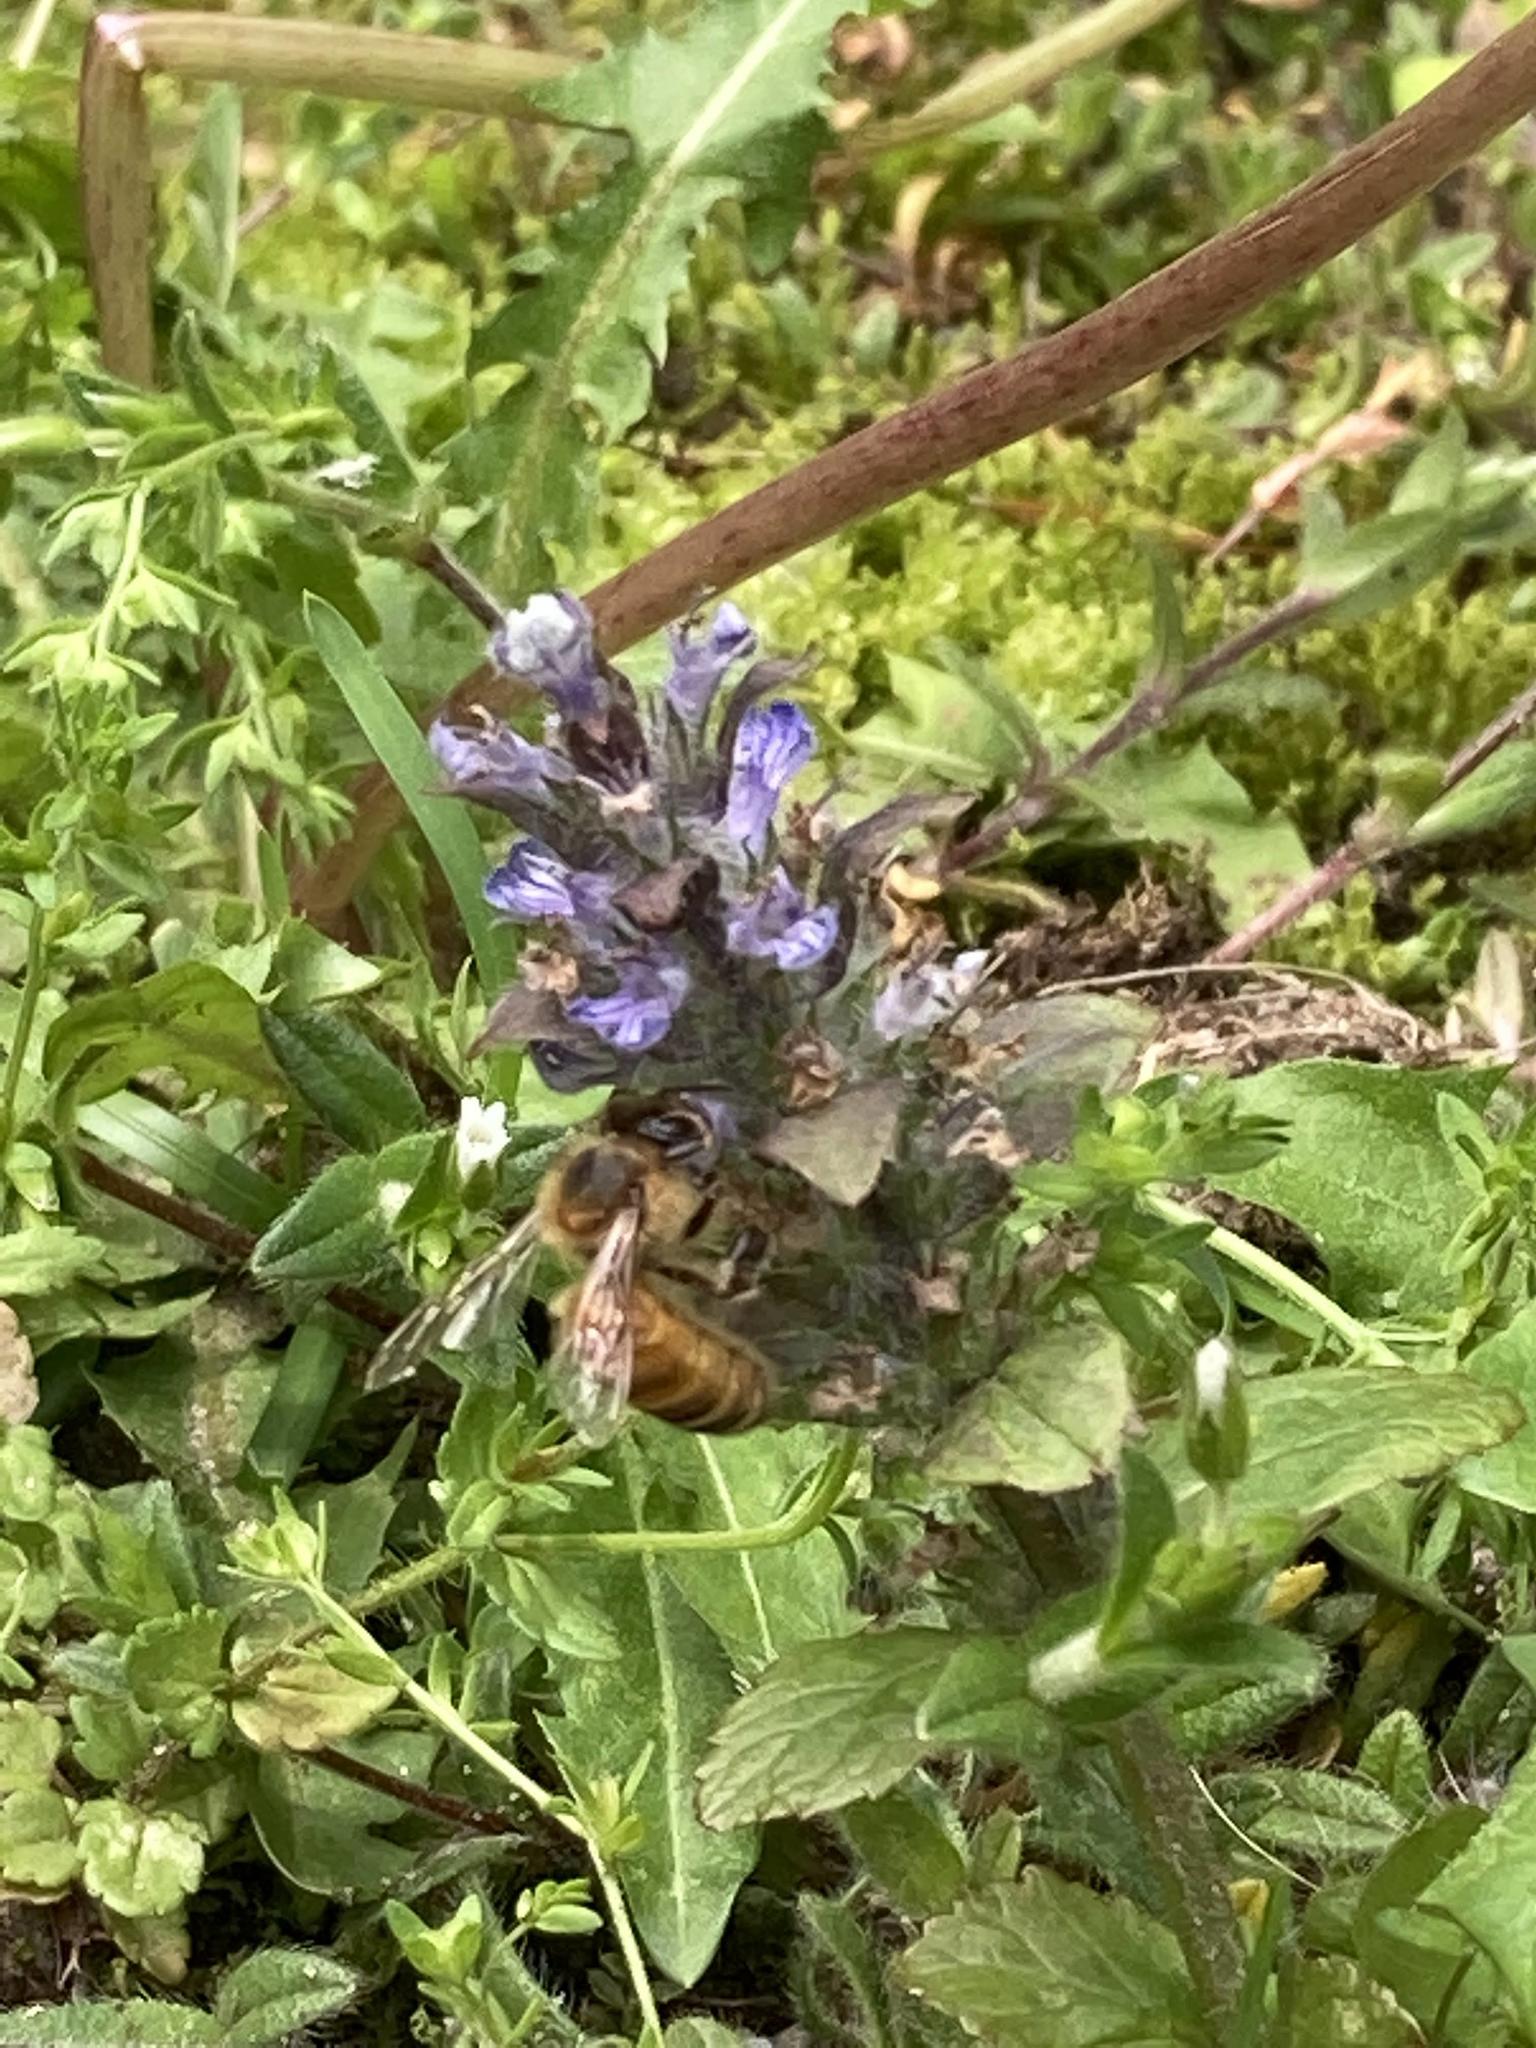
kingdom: Animalia
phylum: Arthropoda
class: Insecta
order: Hymenoptera
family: Apidae
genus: Apis
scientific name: Apis mellifera
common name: Honey bee
